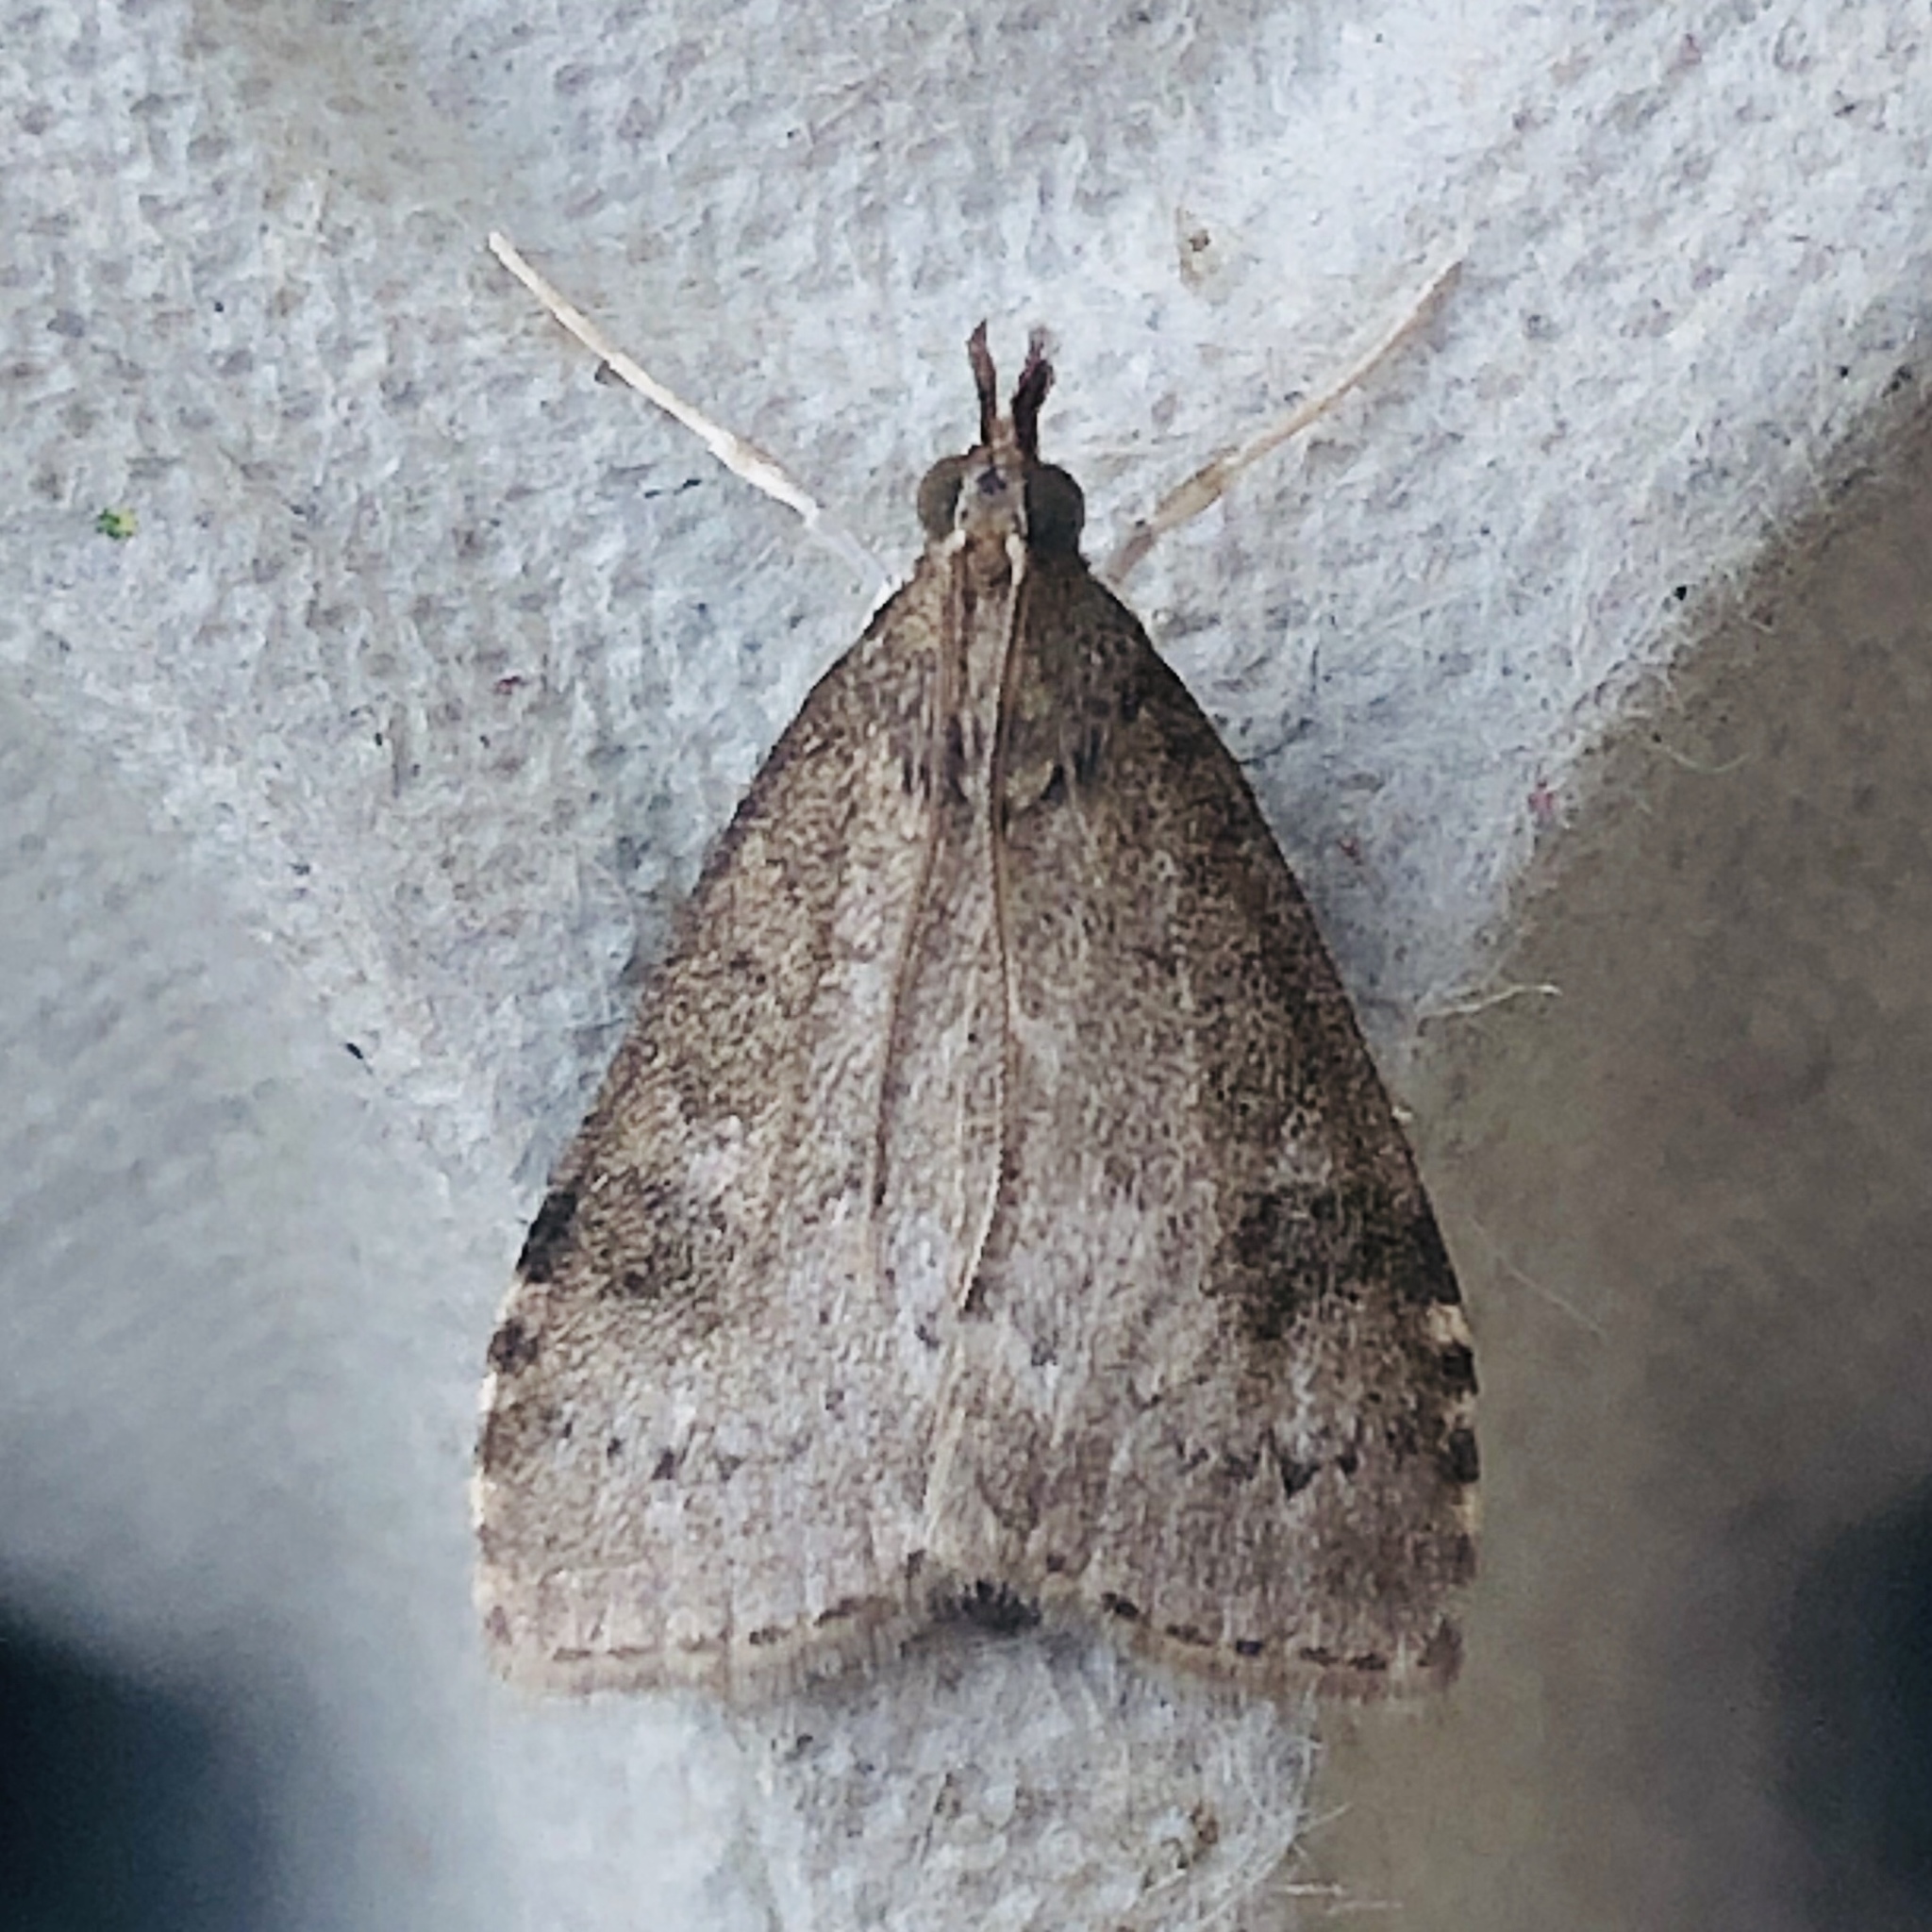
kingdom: Animalia
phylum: Arthropoda
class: Insecta
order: Lepidoptera
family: Crambidae
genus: Udea
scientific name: Udea prunalis
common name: Dusky pearl
